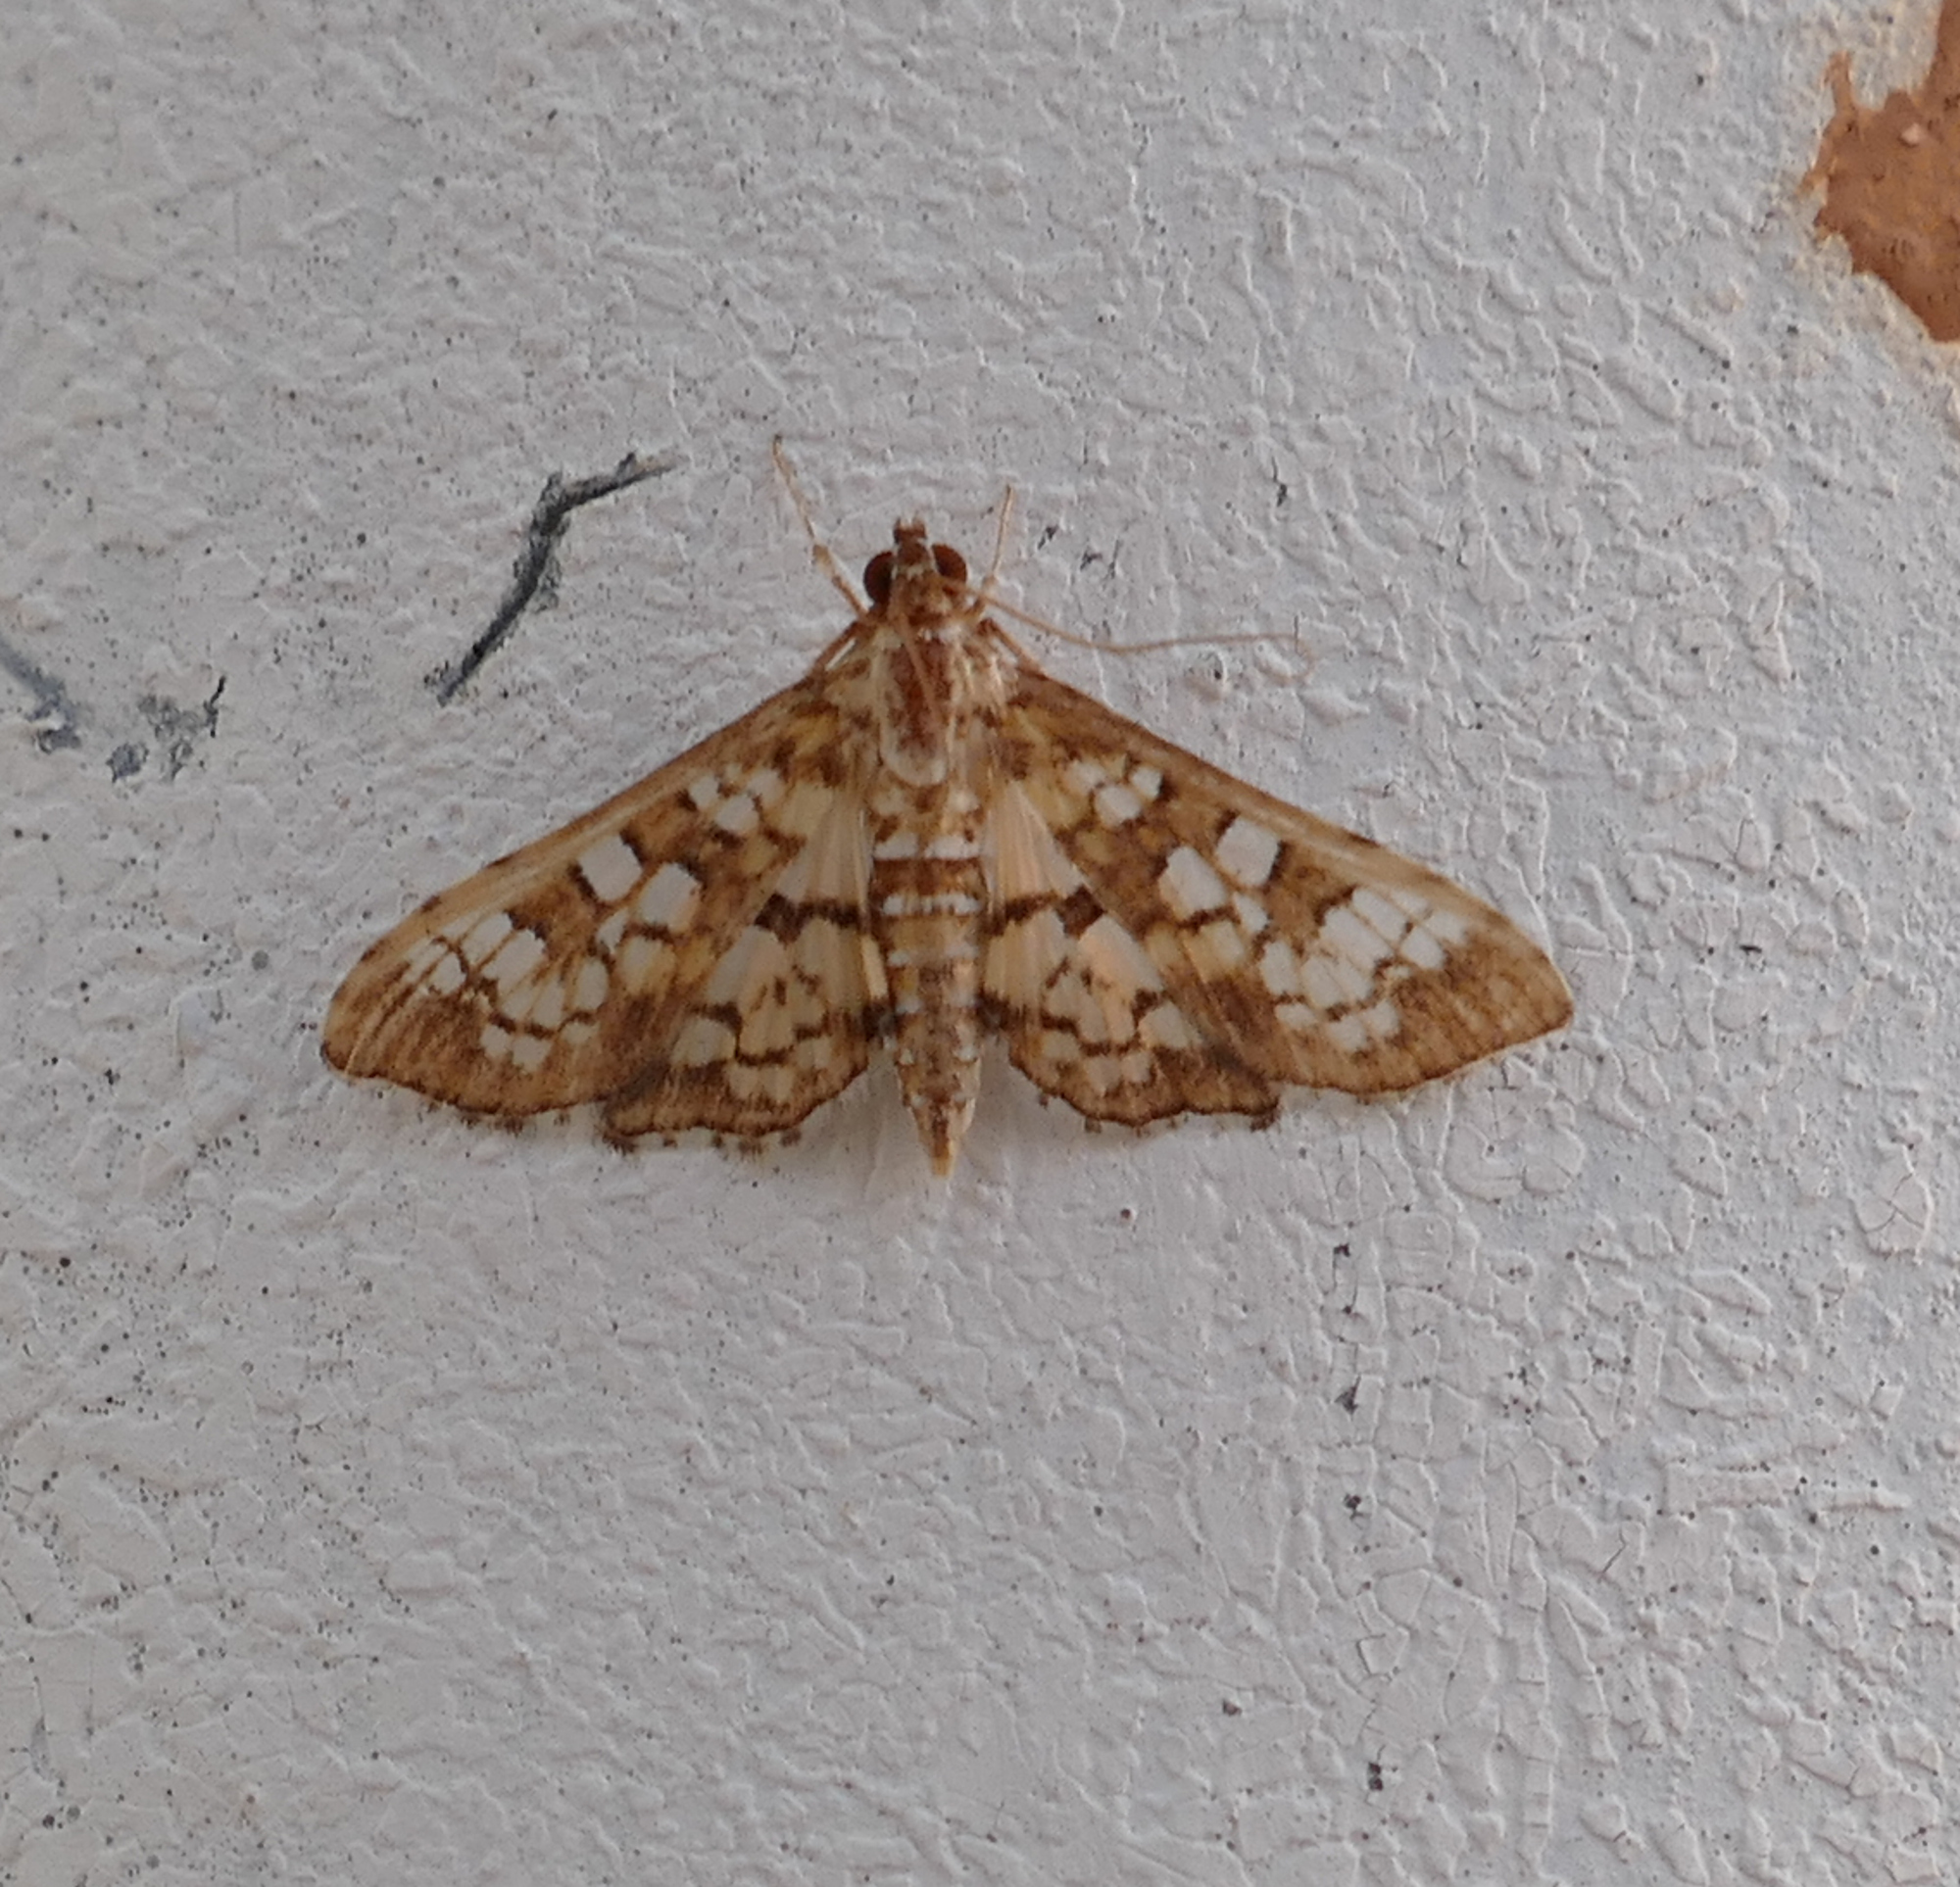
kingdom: Animalia
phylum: Arthropoda
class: Insecta
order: Lepidoptera
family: Crambidae
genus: Samea
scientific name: Samea ecclesialis
